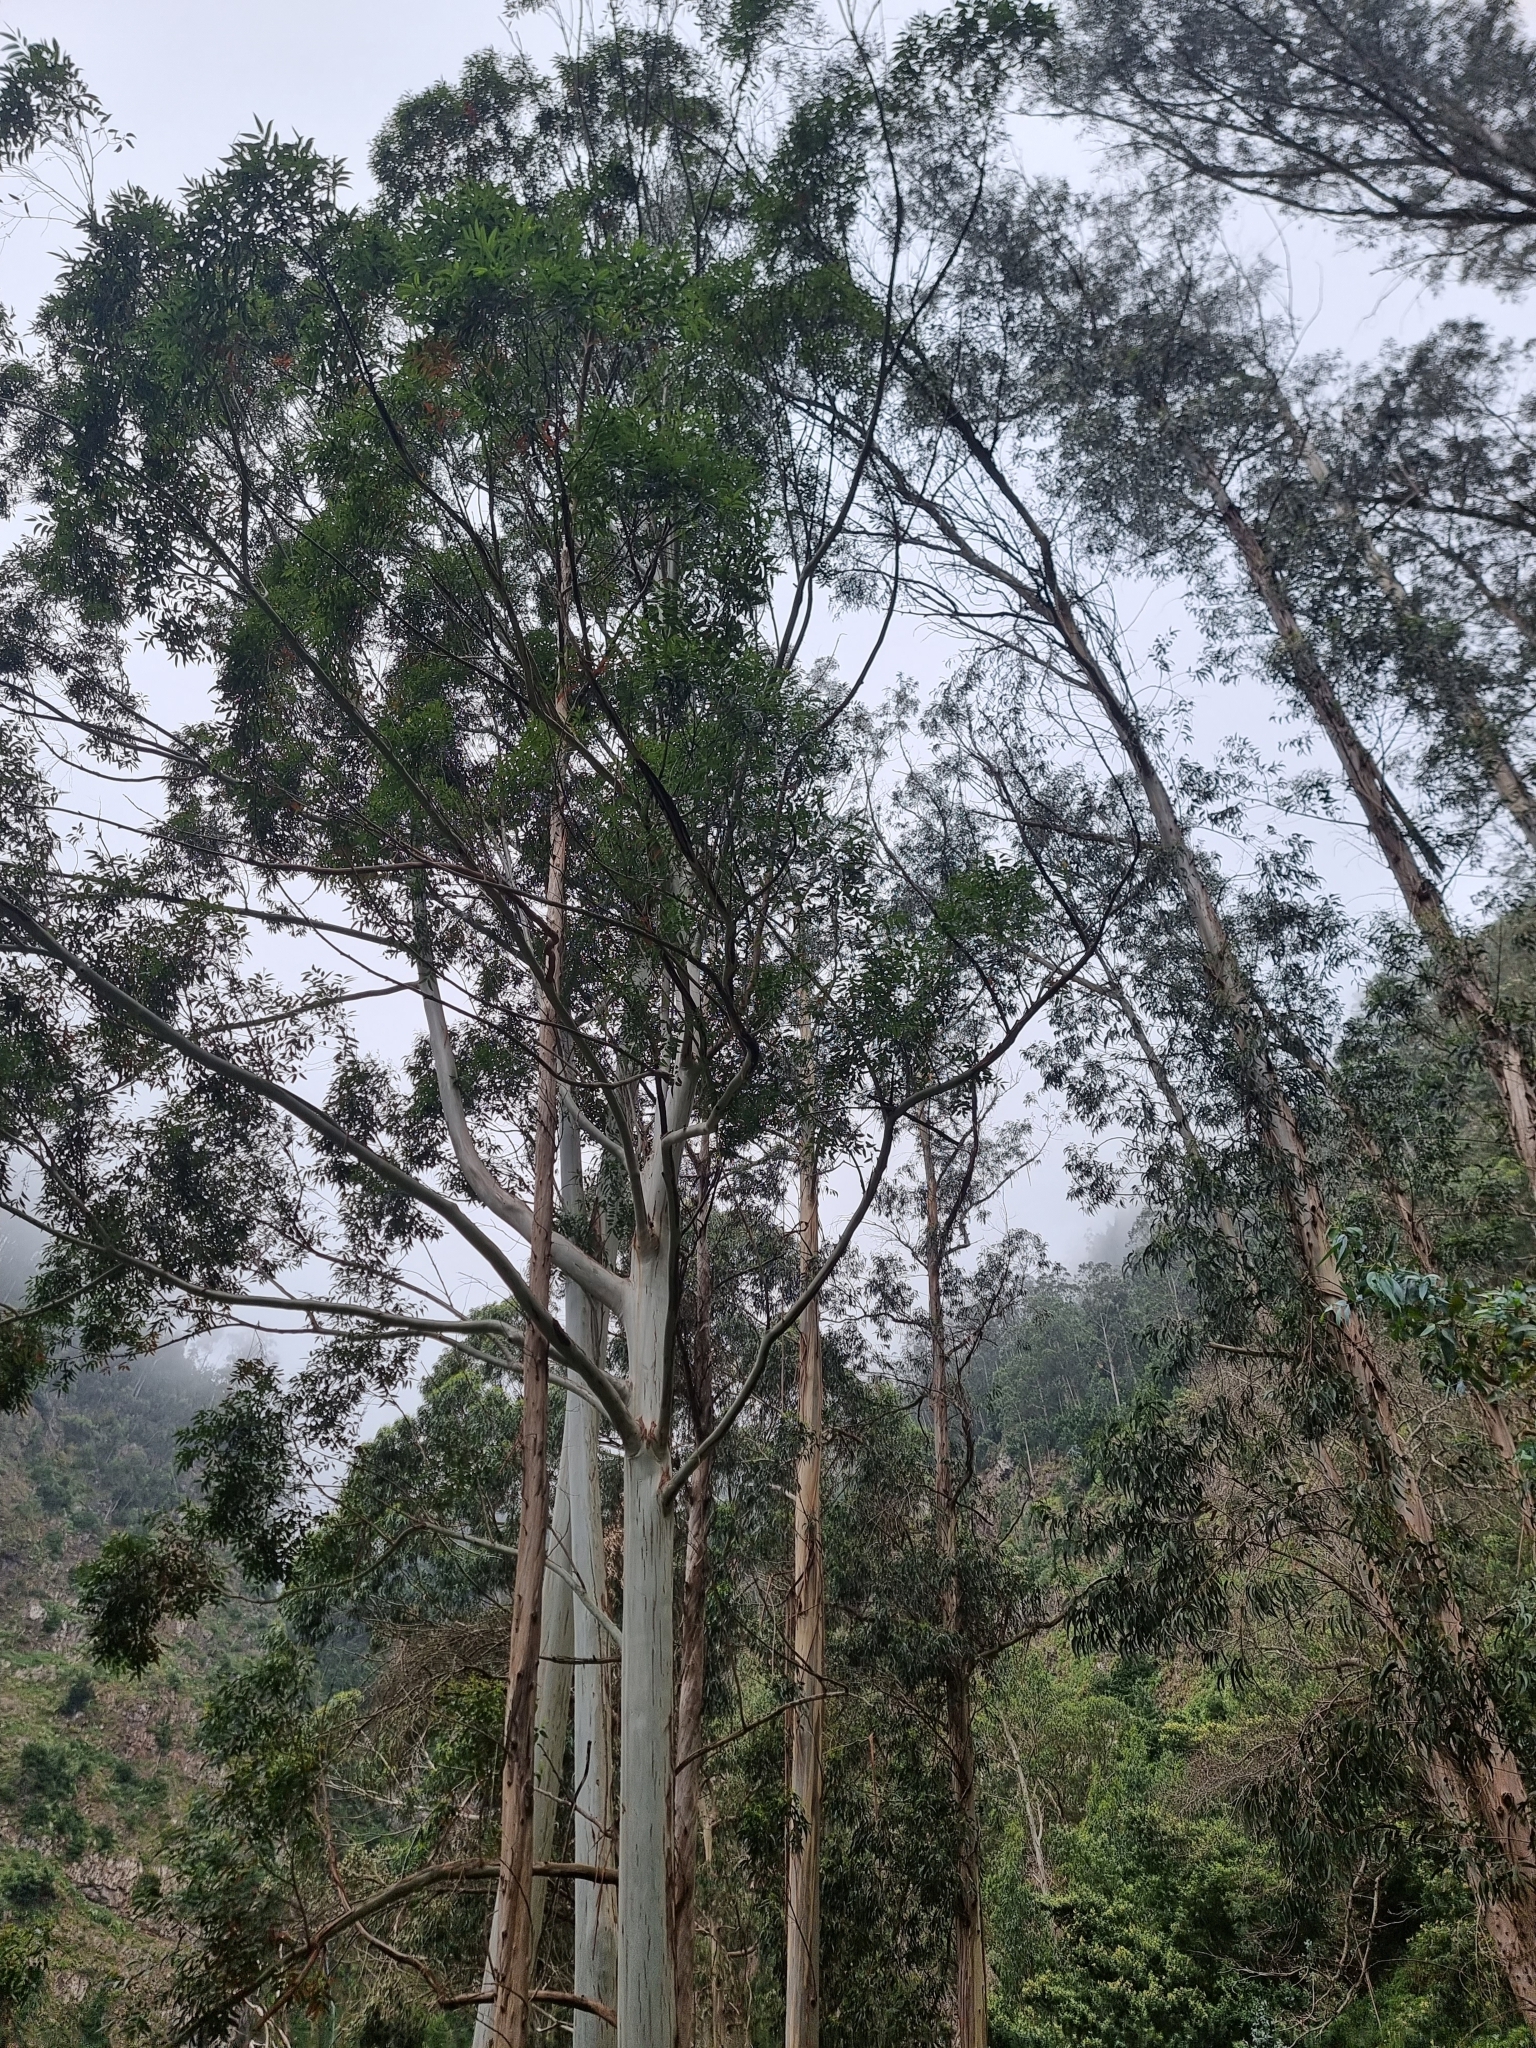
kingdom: Plantae
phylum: Tracheophyta
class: Magnoliopsida
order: Myrtales
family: Myrtaceae
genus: Eucalyptus
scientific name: Eucalyptus globulus
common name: Southern blue-gum
